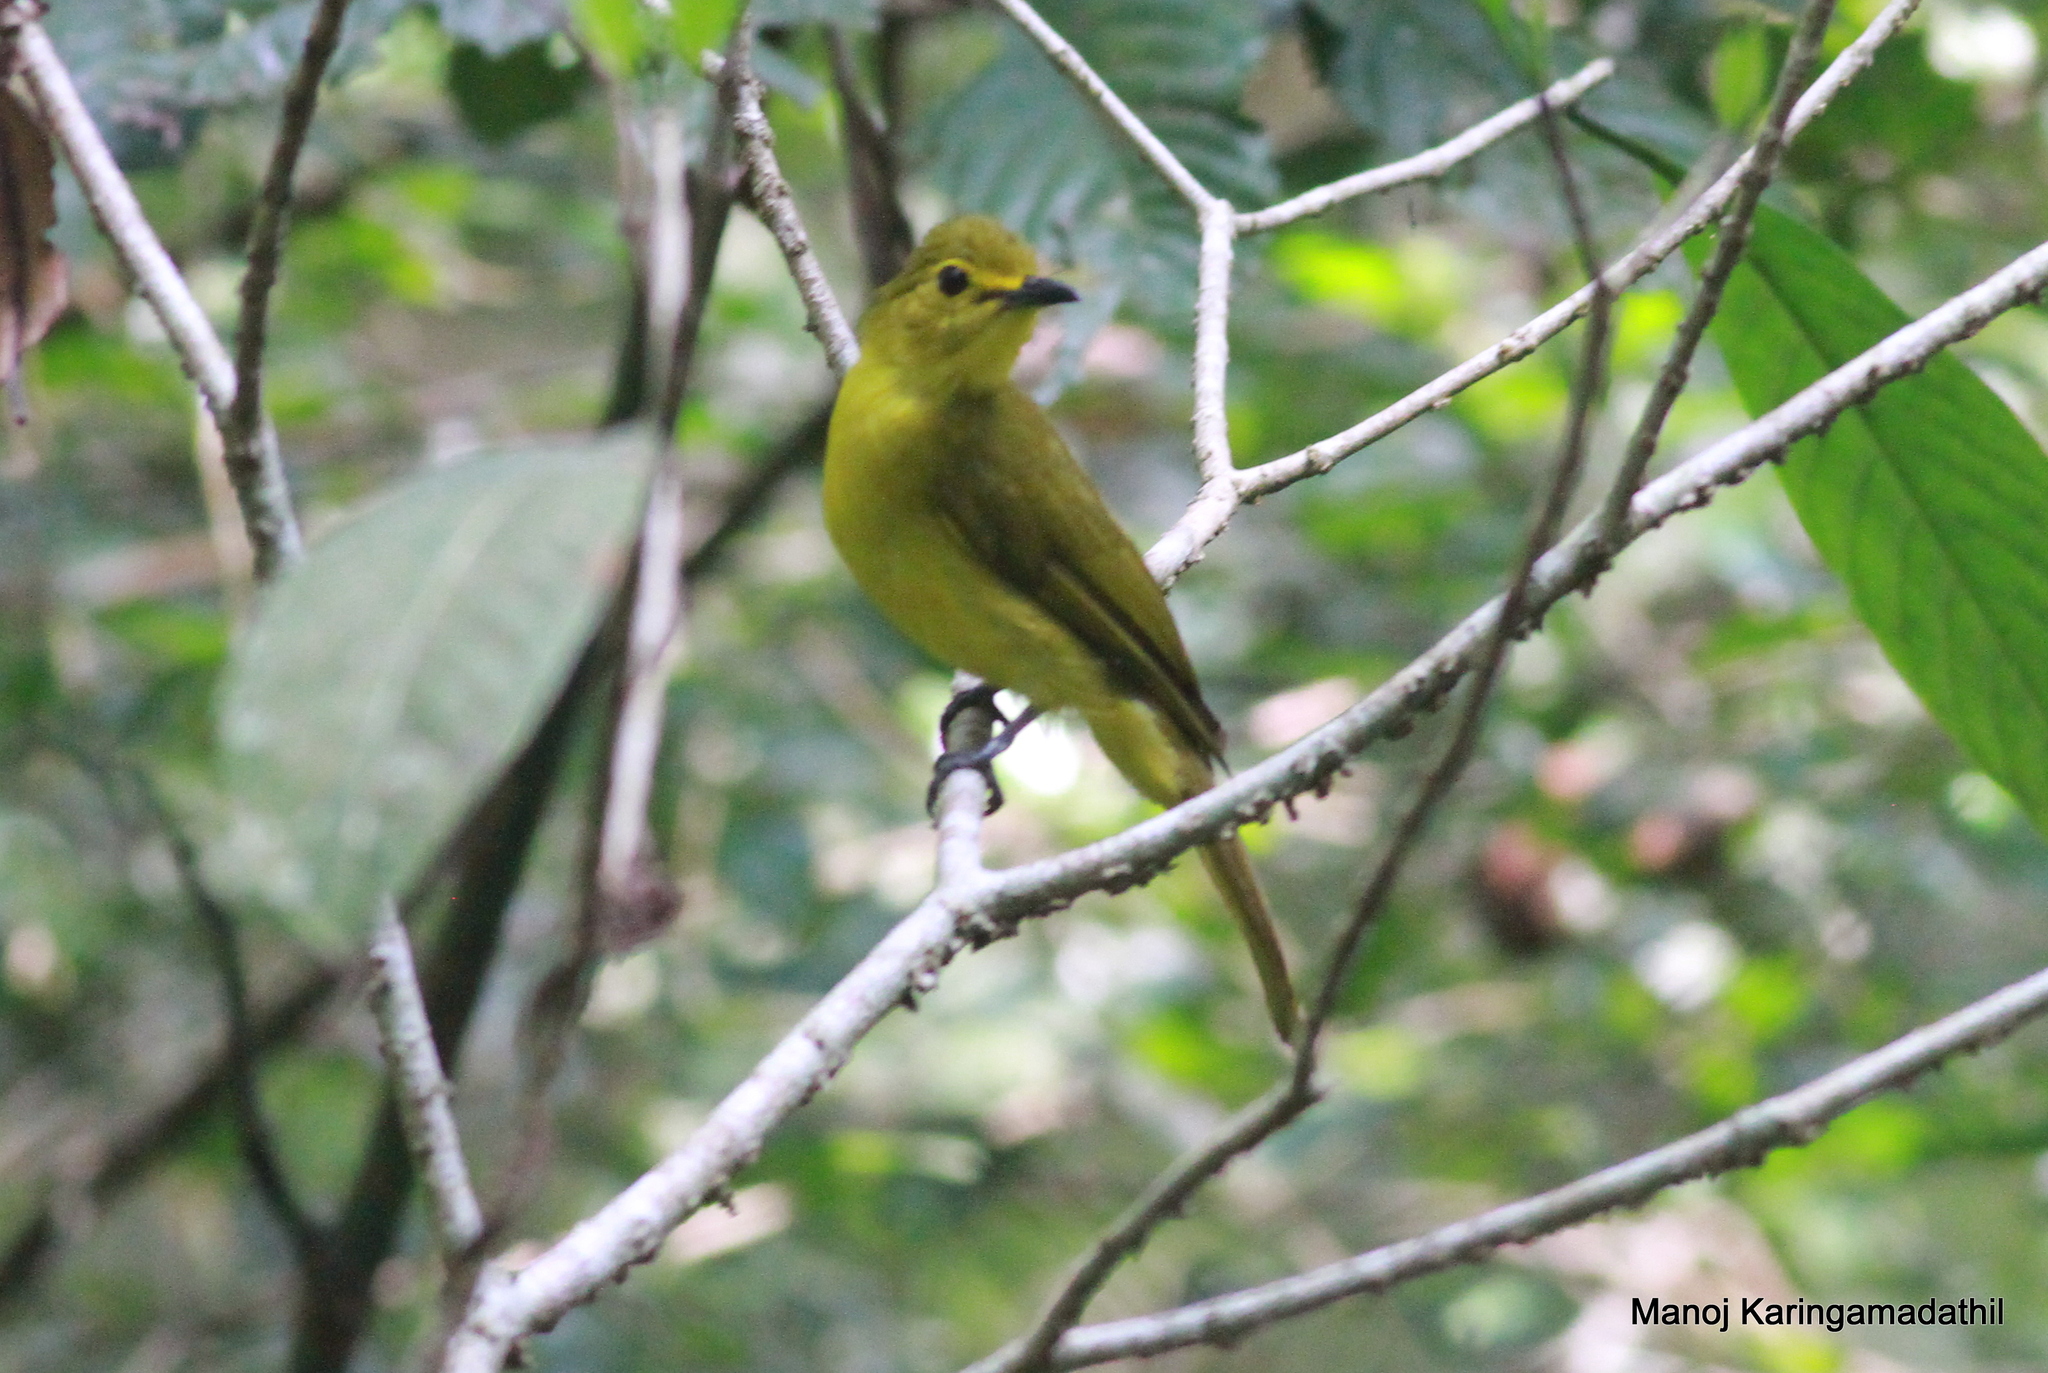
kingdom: Animalia
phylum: Chordata
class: Aves
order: Passeriformes
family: Pycnonotidae
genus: Acritillas
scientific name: Acritillas indica
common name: Yellow-browed bulbul
